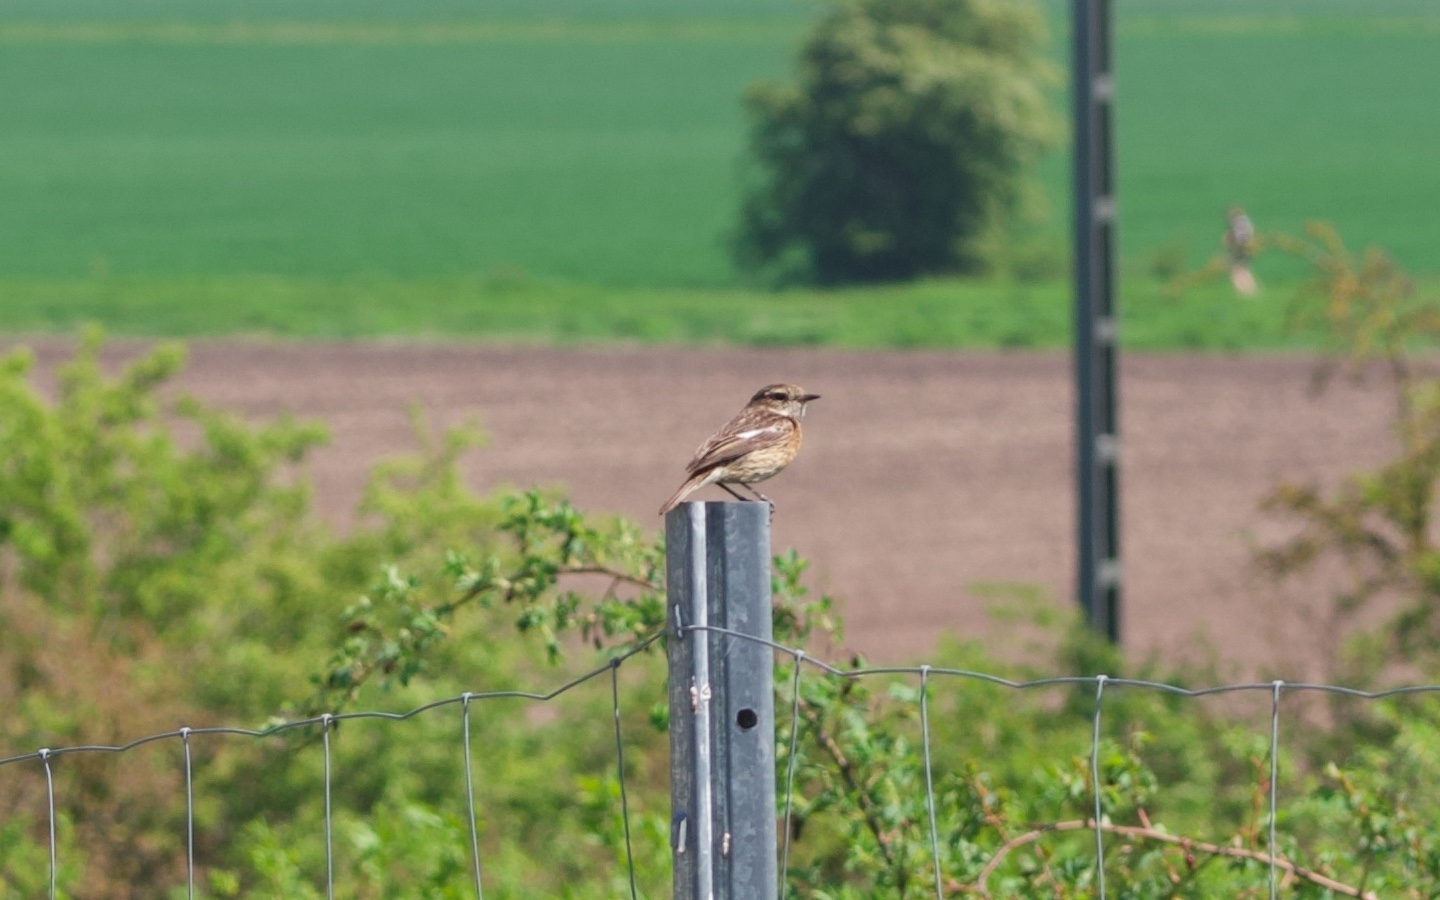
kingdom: Animalia
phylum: Chordata
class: Aves
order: Passeriformes
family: Muscicapidae
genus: Saxicola
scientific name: Saxicola rubicola
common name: European stonechat
